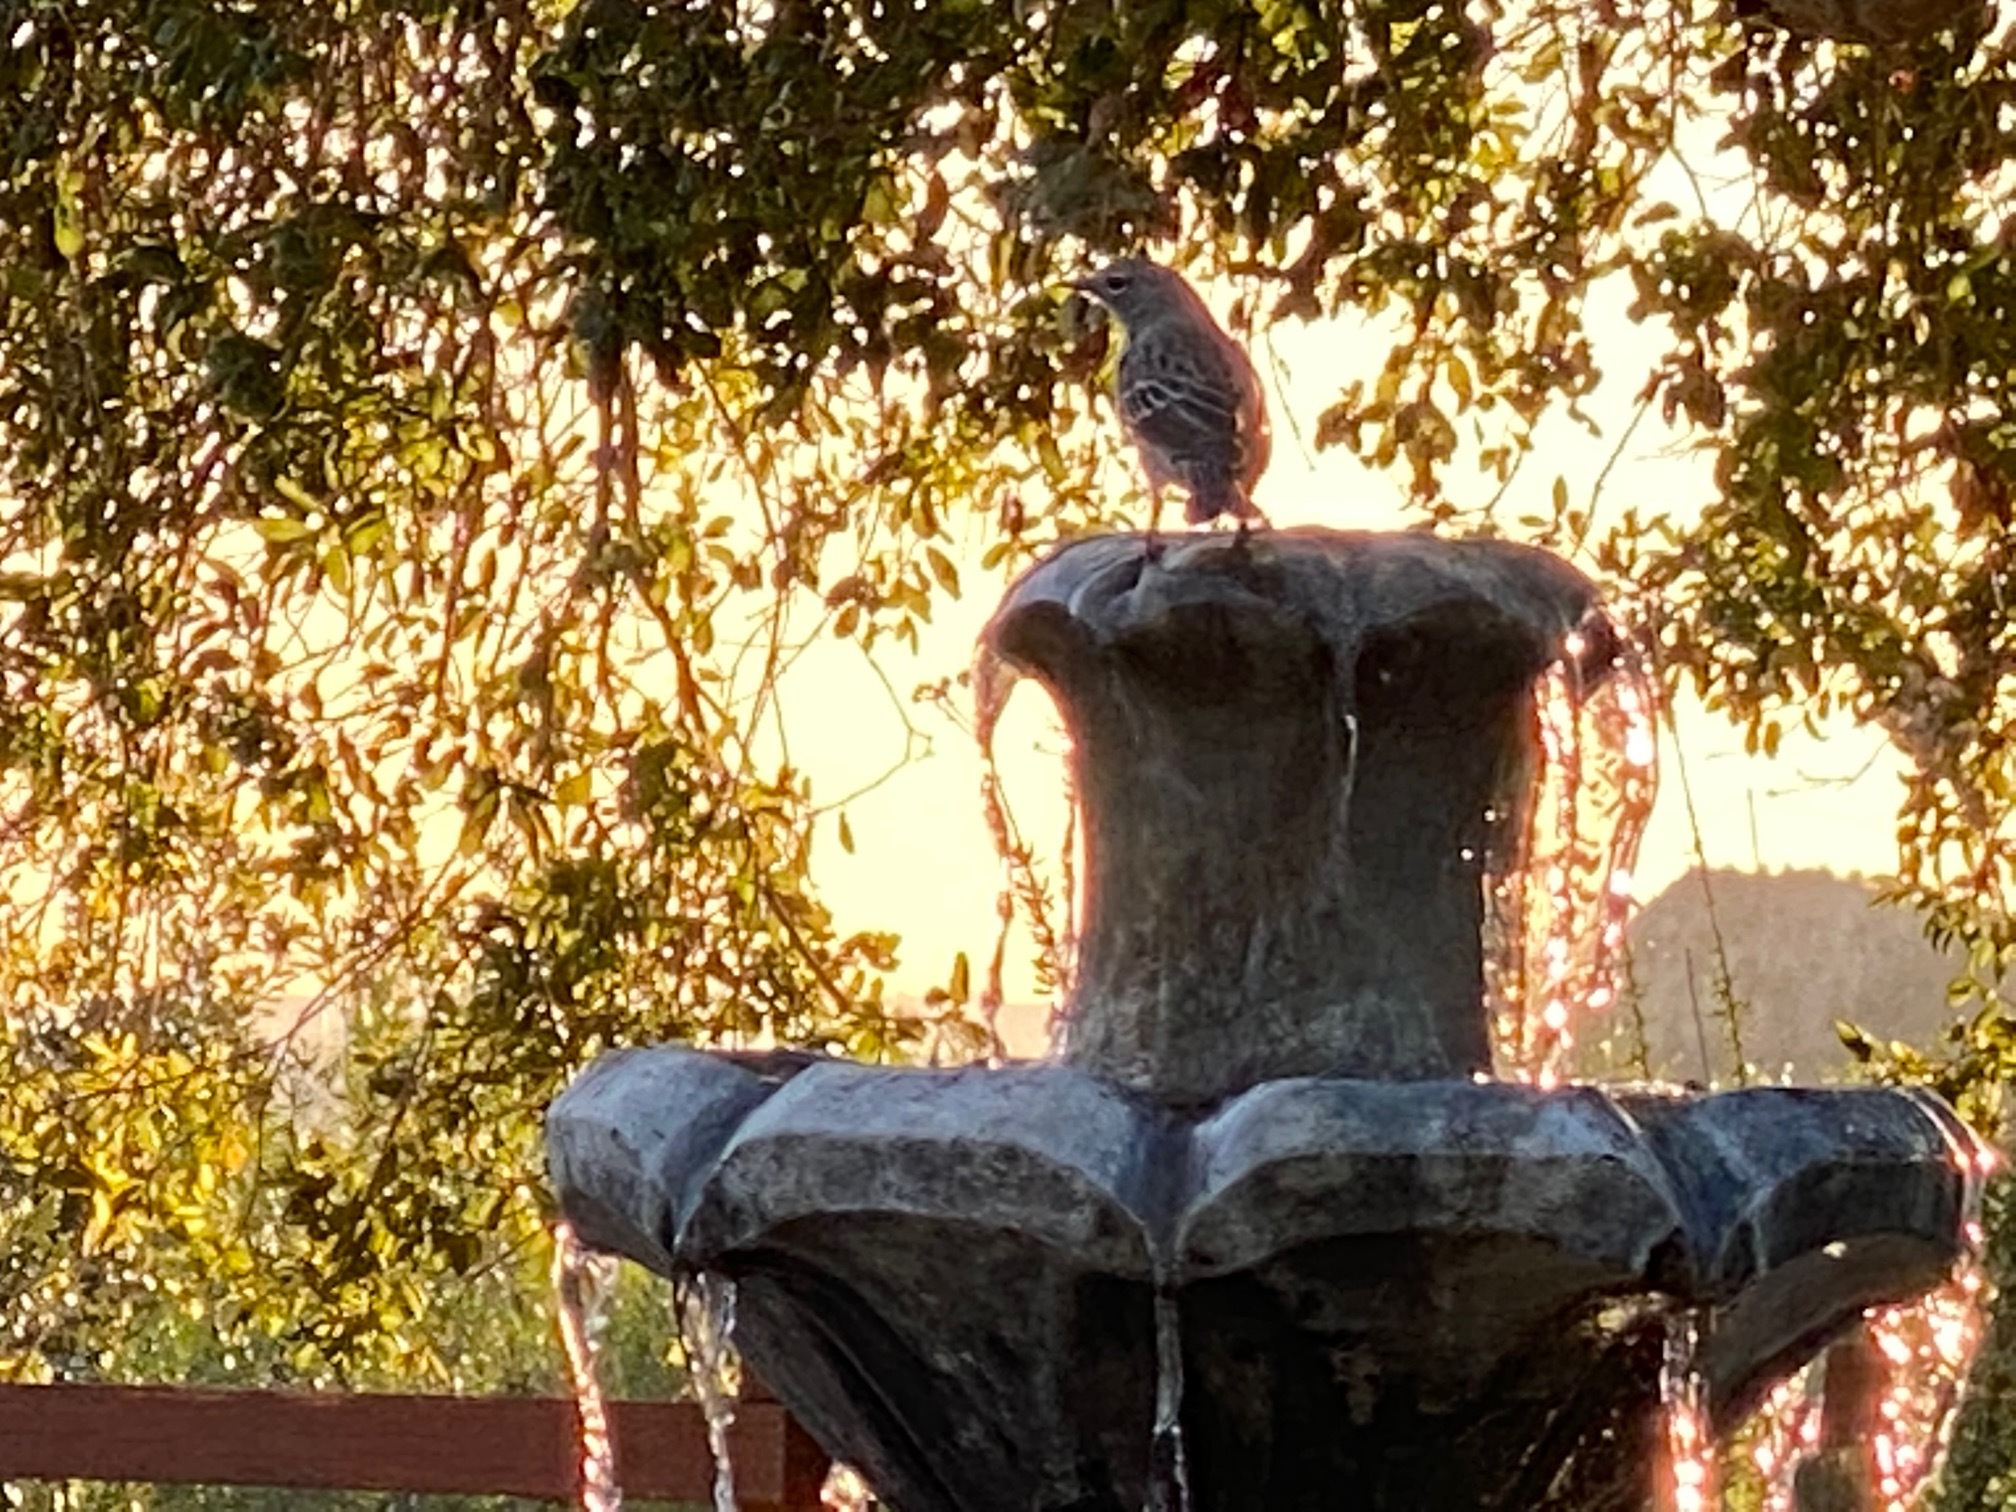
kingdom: Animalia
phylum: Chordata
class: Aves
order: Passeriformes
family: Mimidae
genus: Mimus
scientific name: Mimus polyglottos
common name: Northern mockingbird
